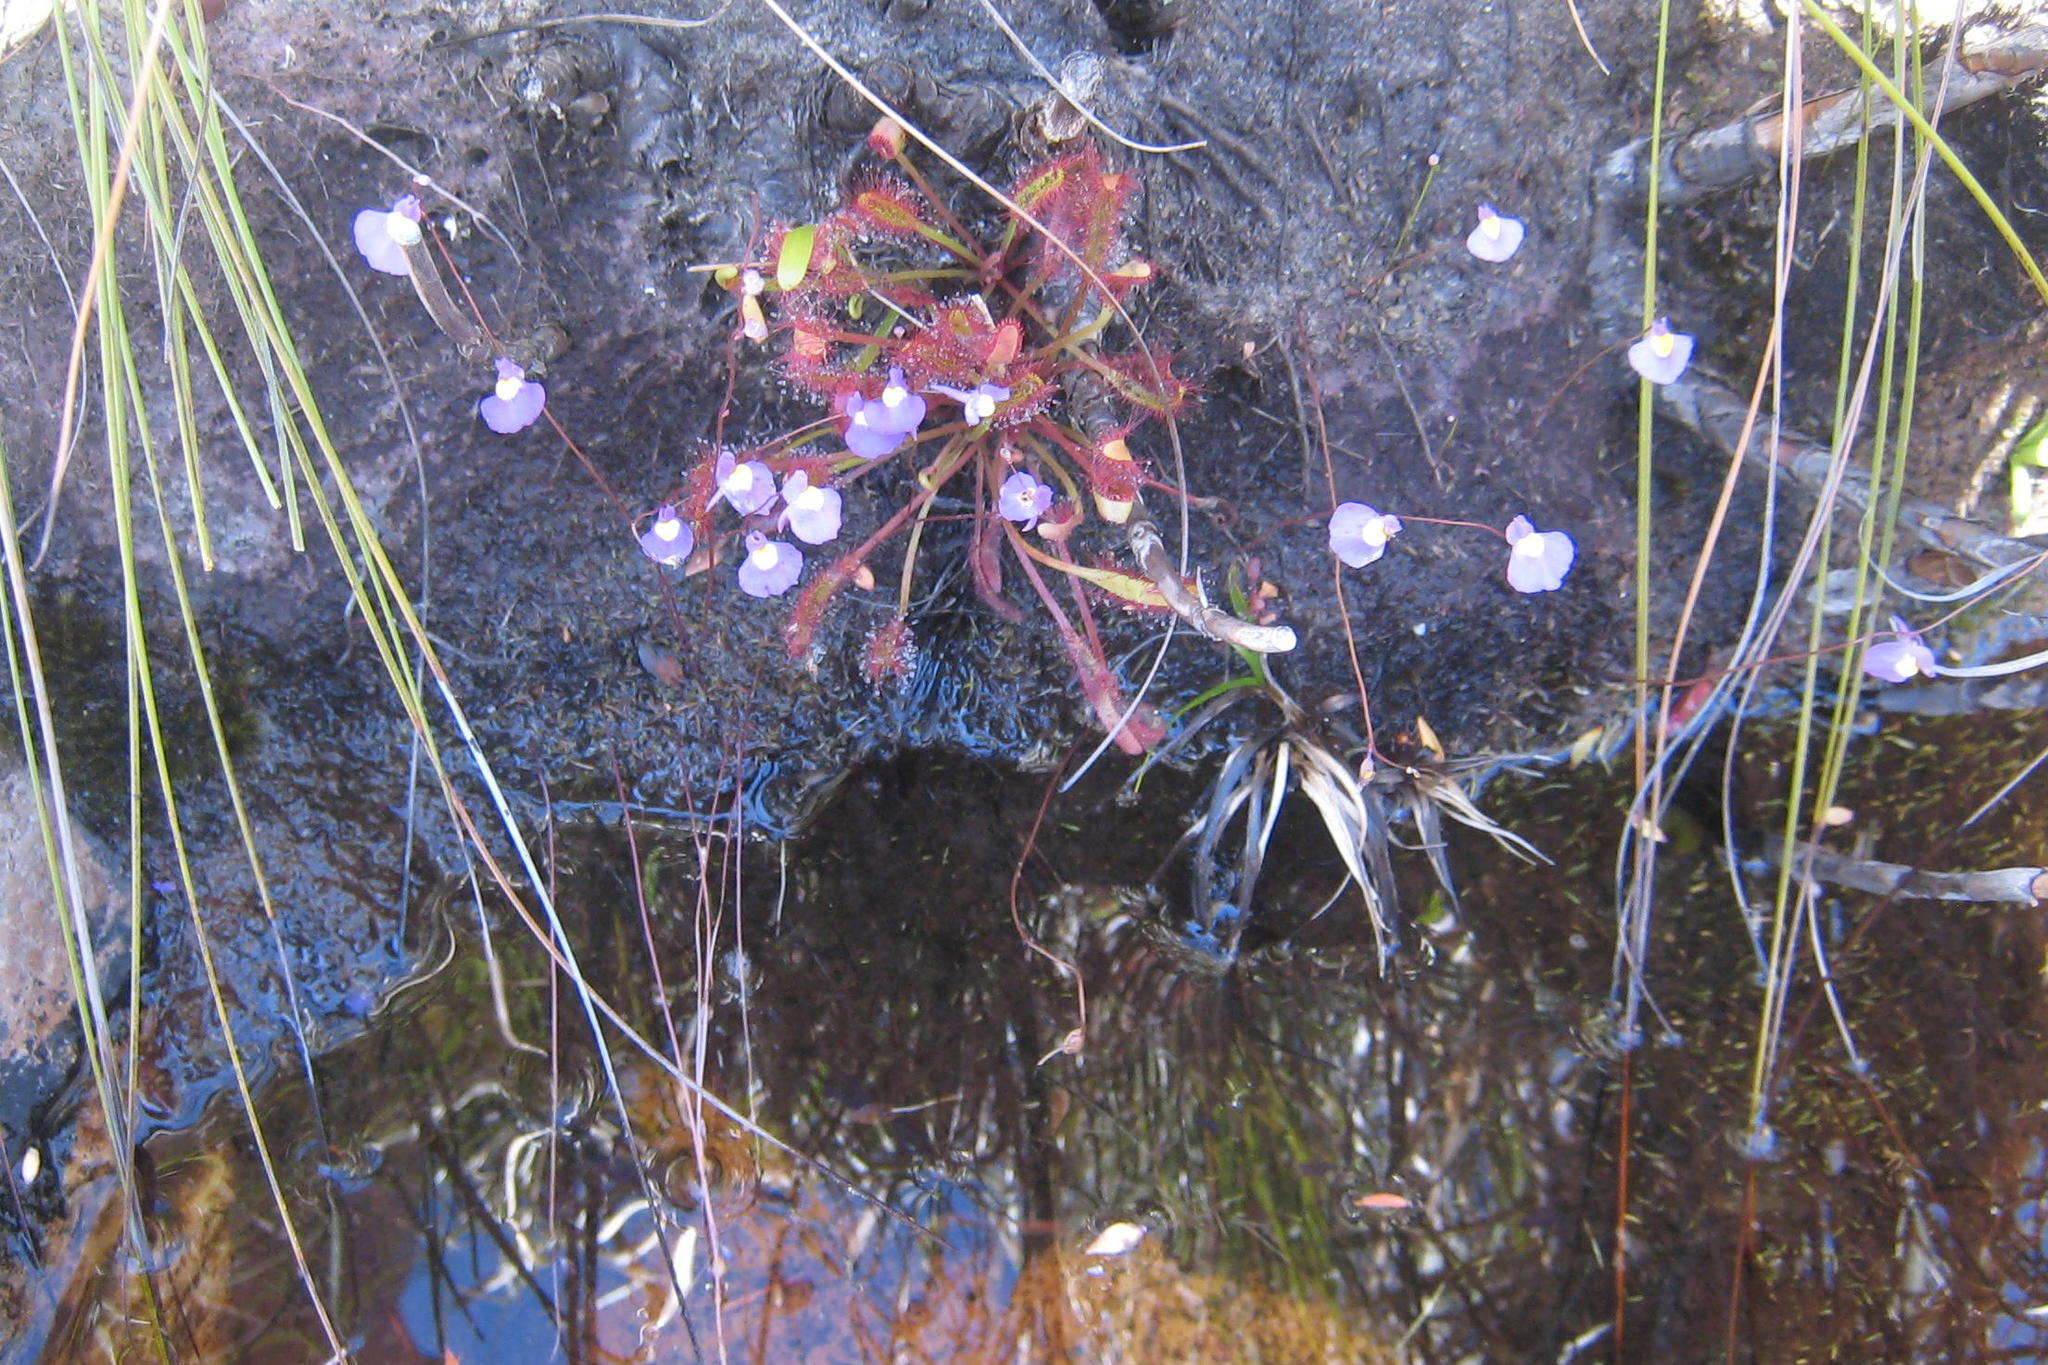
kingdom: Plantae
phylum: Tracheophyta
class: Magnoliopsida
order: Lamiales
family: Lentibulariaceae
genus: Utricularia
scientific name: Utricularia bisquamata
